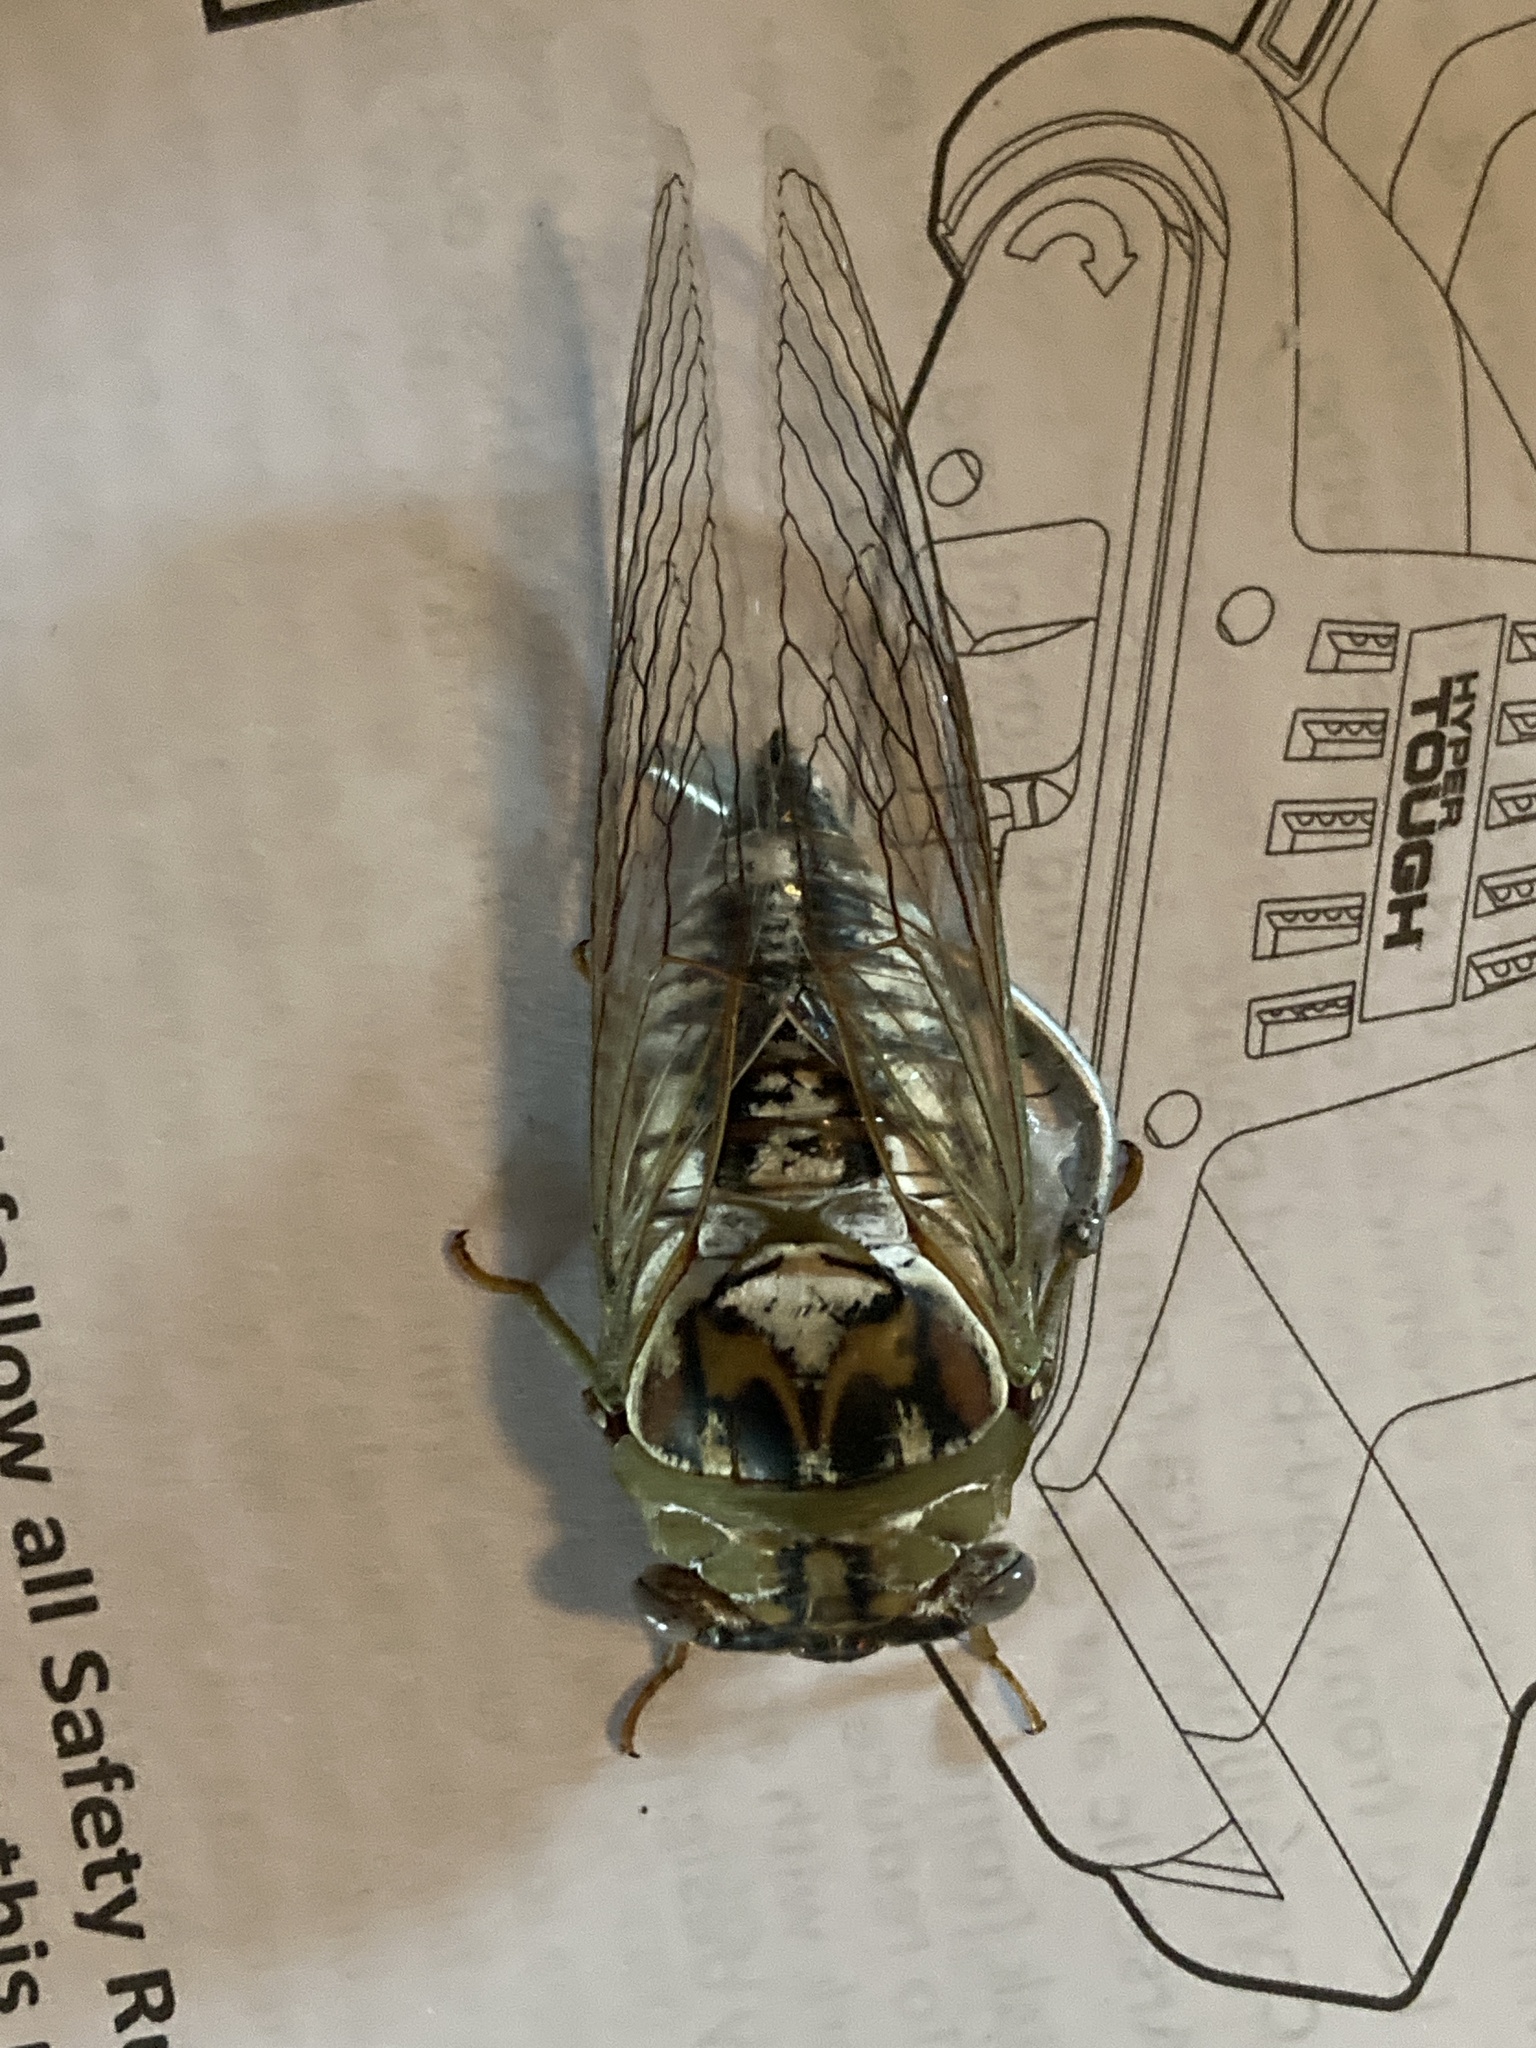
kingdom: Animalia
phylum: Arthropoda
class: Insecta
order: Hemiptera
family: Cicadidae
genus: Megatibicen
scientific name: Megatibicen dealbatus
